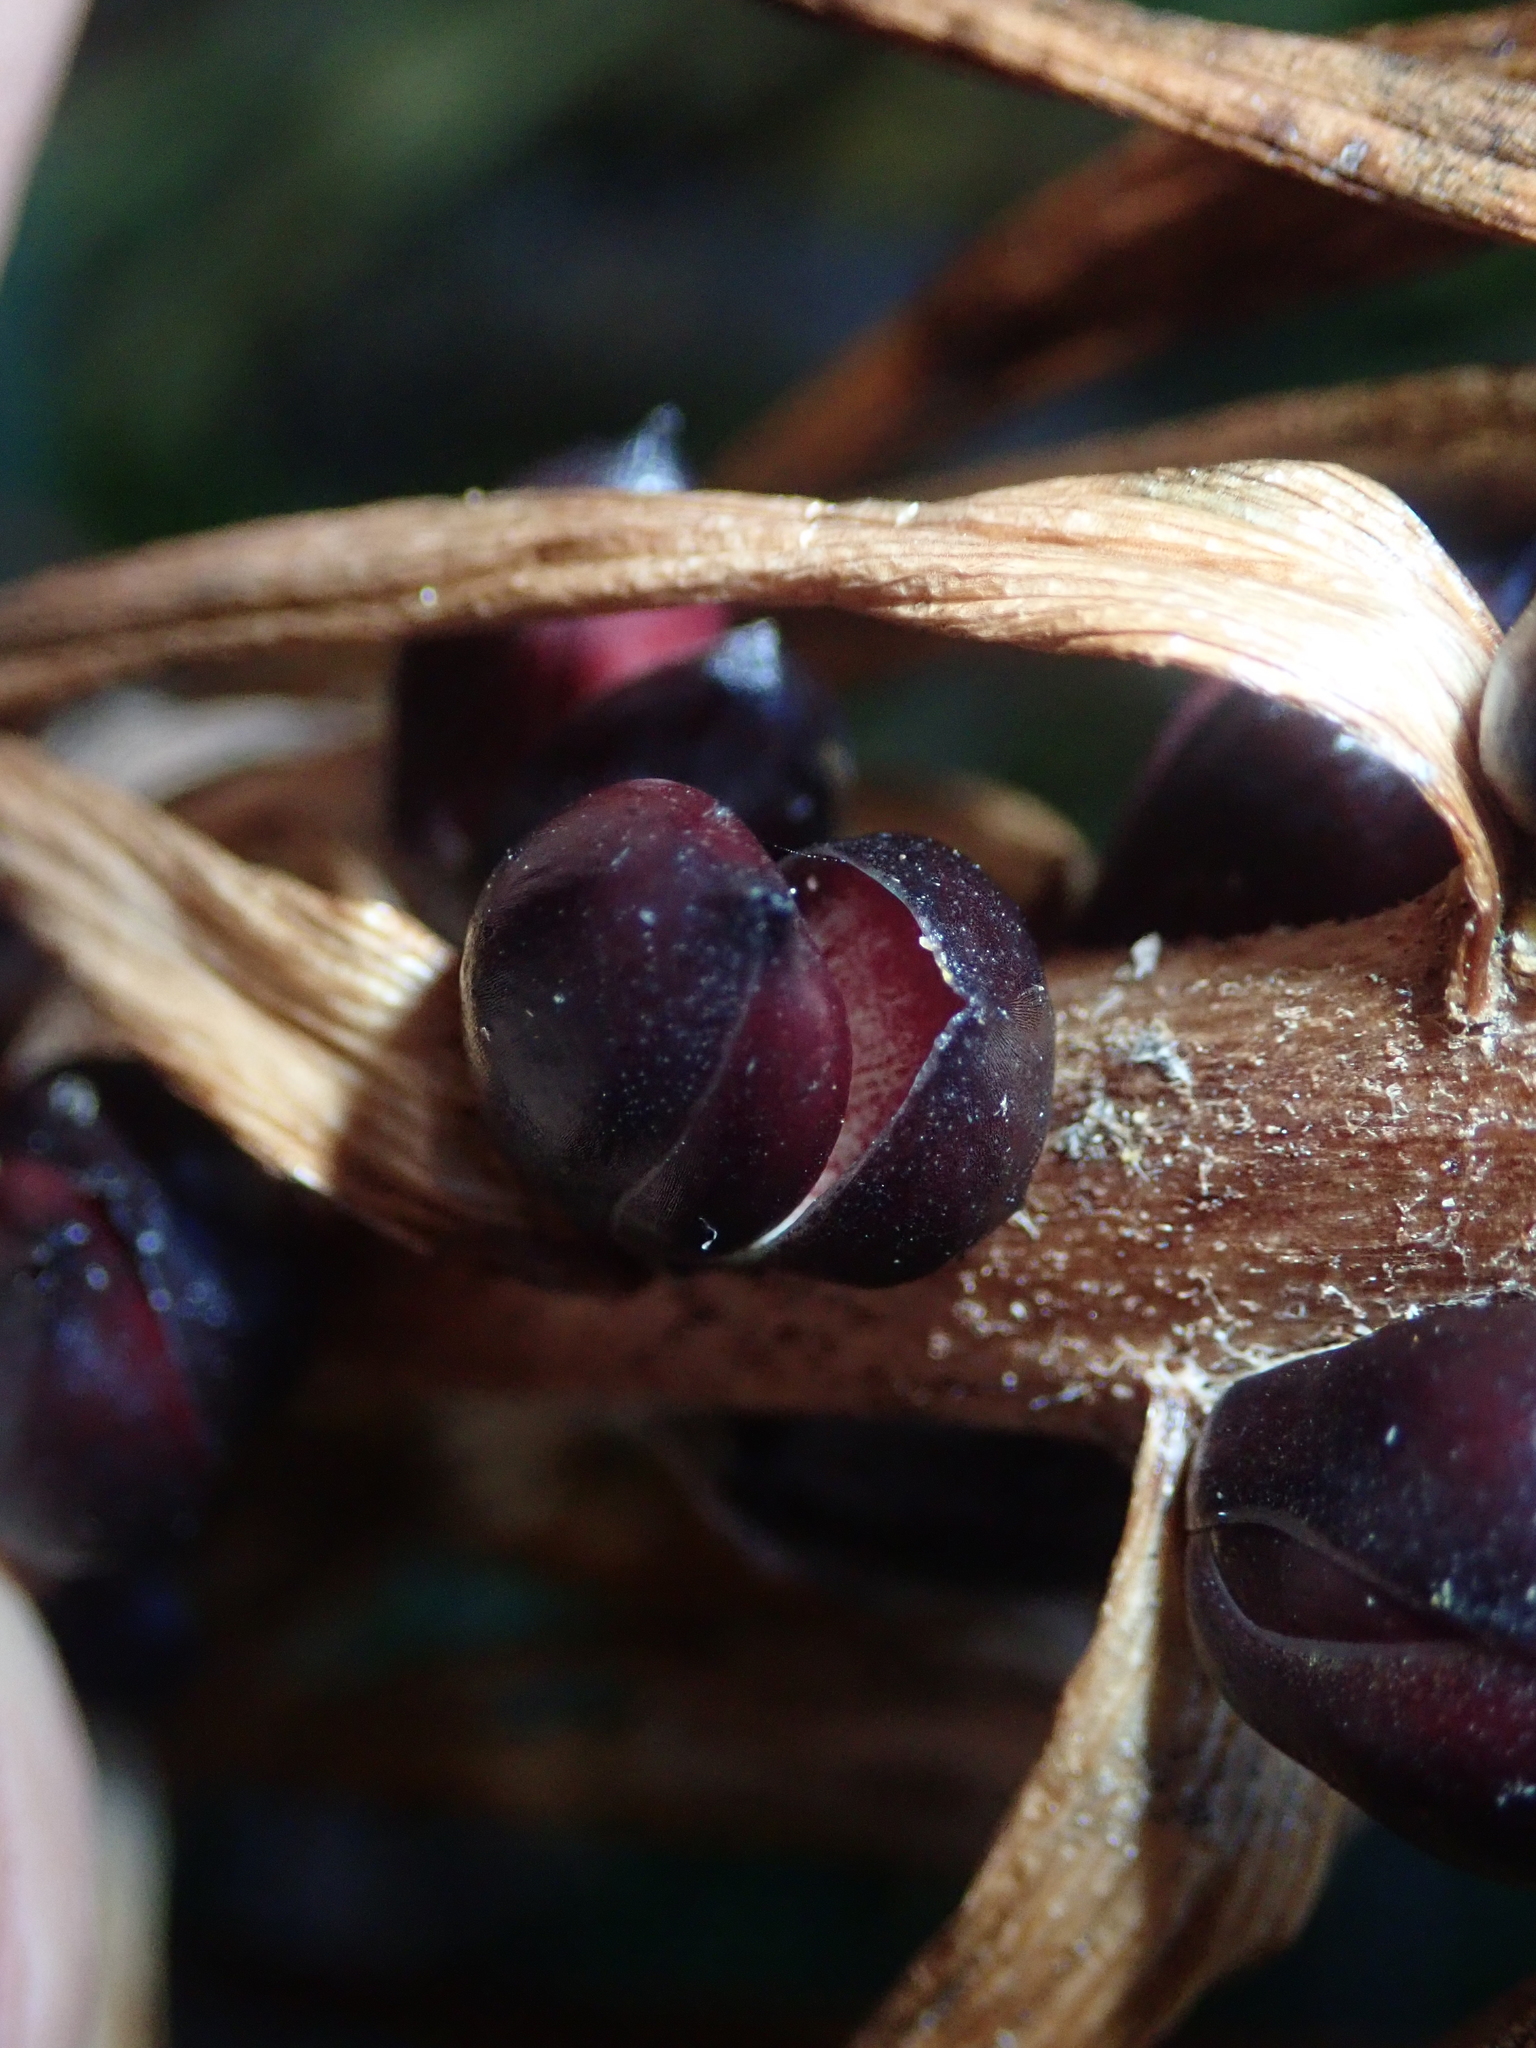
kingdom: Plantae
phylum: Tracheophyta
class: Liliopsida
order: Liliales
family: Liliaceae
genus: Lilium
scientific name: Lilium lancifolium
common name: Tiger lily
